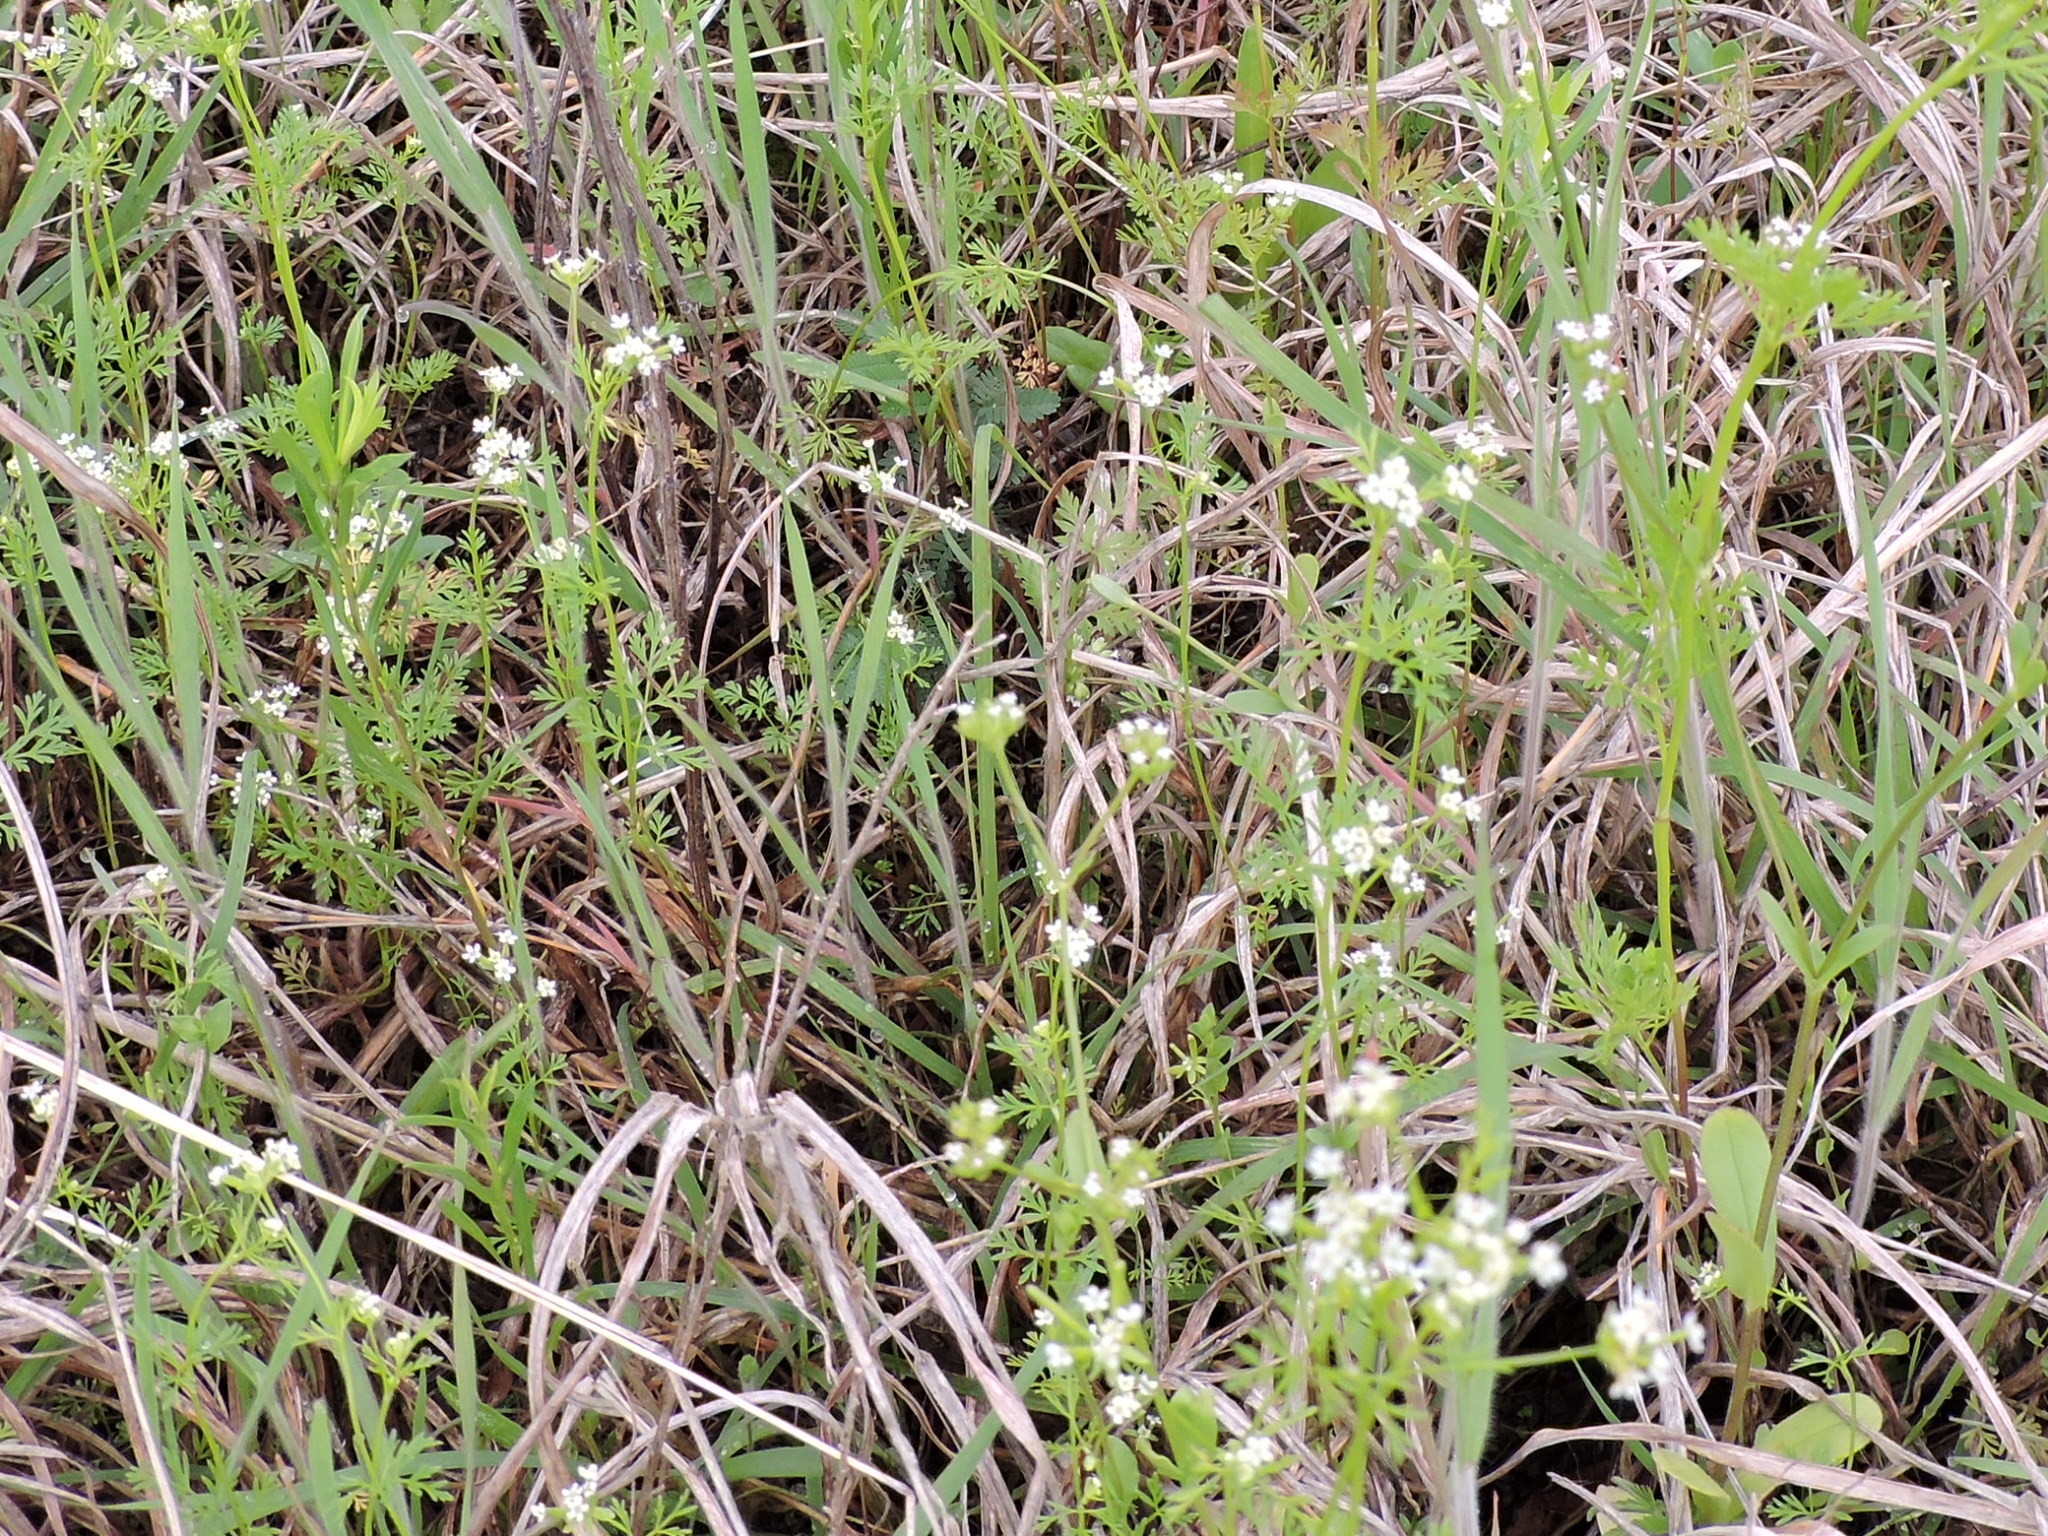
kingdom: Plantae
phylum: Tracheophyta
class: Magnoliopsida
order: Apiales
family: Apiaceae
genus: Chaerophyllum
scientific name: Chaerophyllum tainturieri
